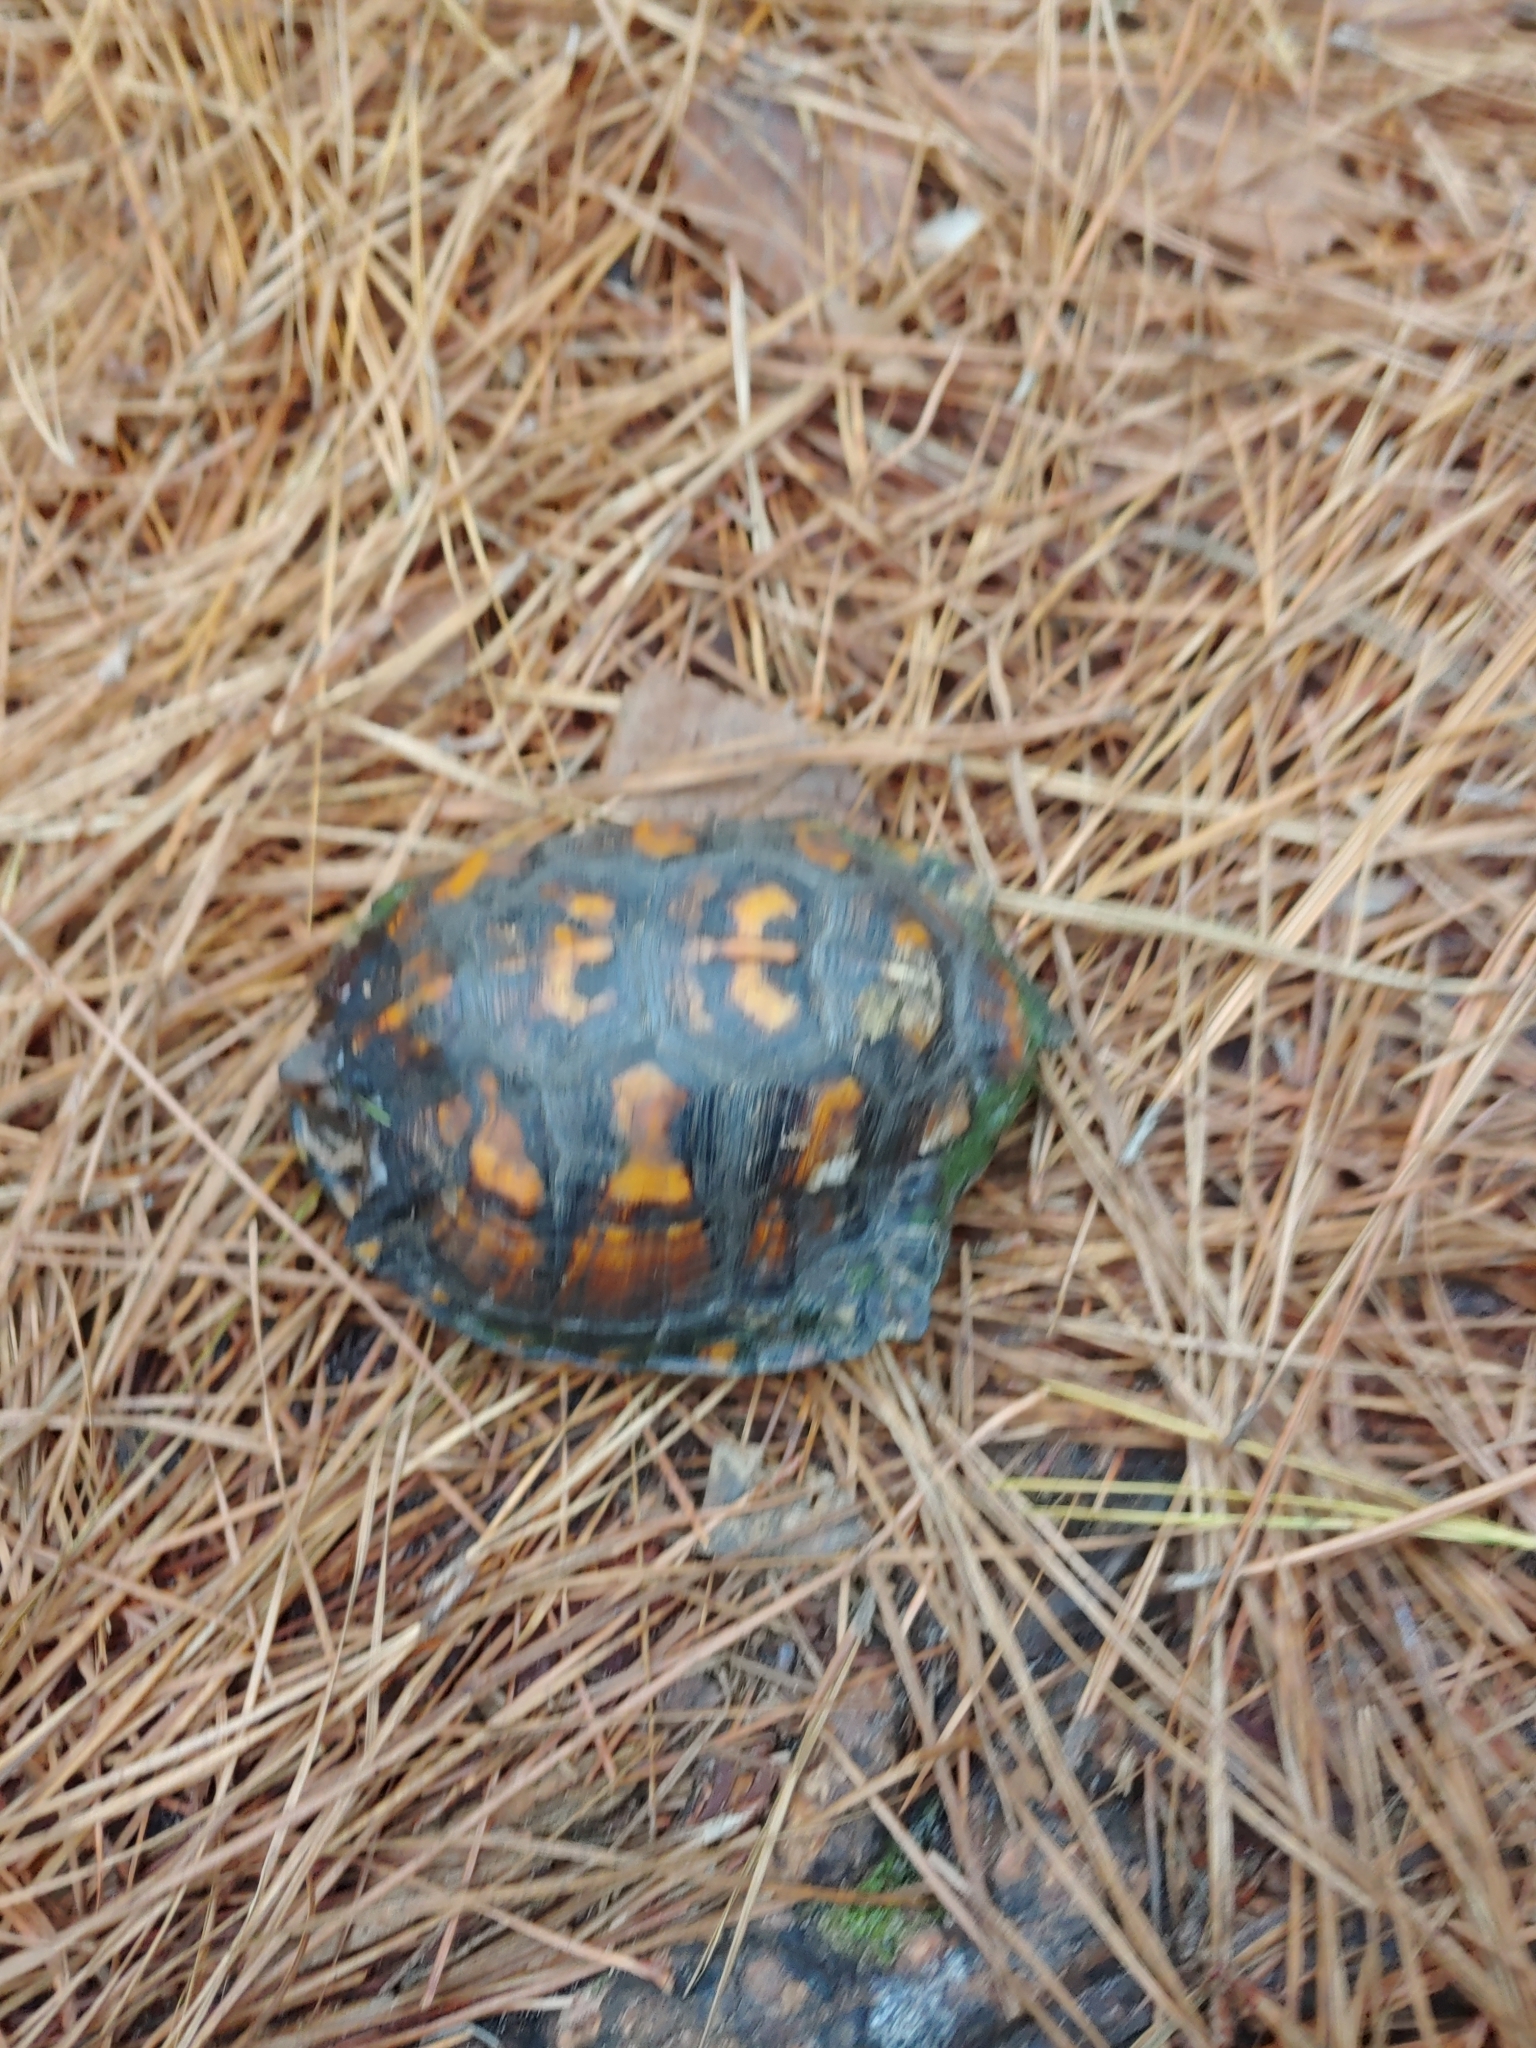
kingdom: Animalia
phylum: Chordata
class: Testudines
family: Emydidae
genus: Terrapene
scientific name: Terrapene carolina
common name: Common box turtle
